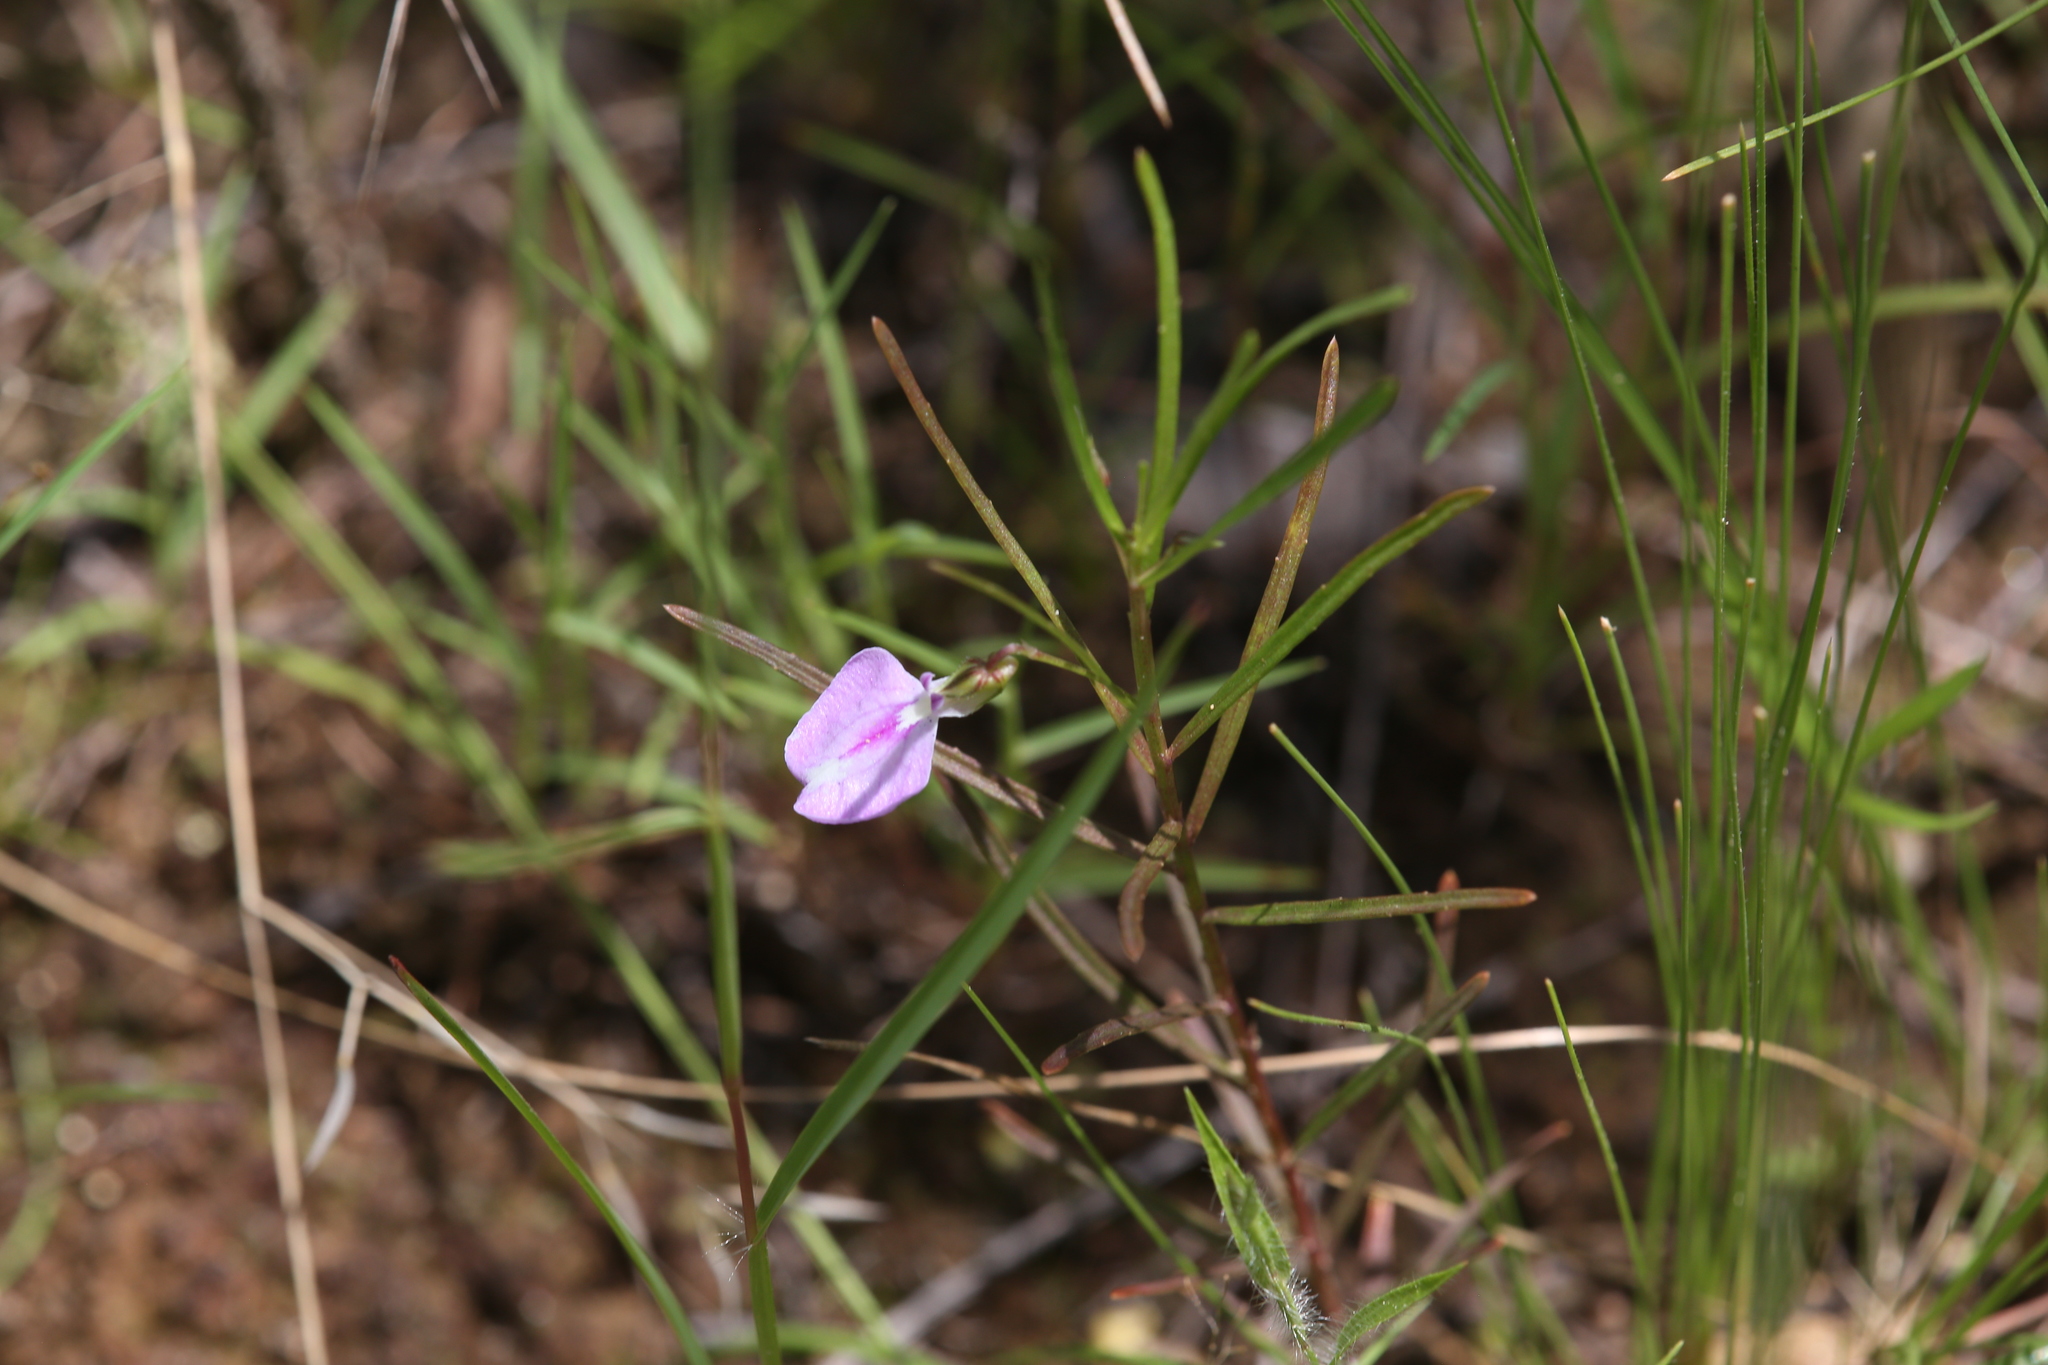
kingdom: Plantae
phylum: Tracheophyta
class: Magnoliopsida
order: Malpighiales
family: Violaceae
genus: Pigea
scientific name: Pigea enneasperma
